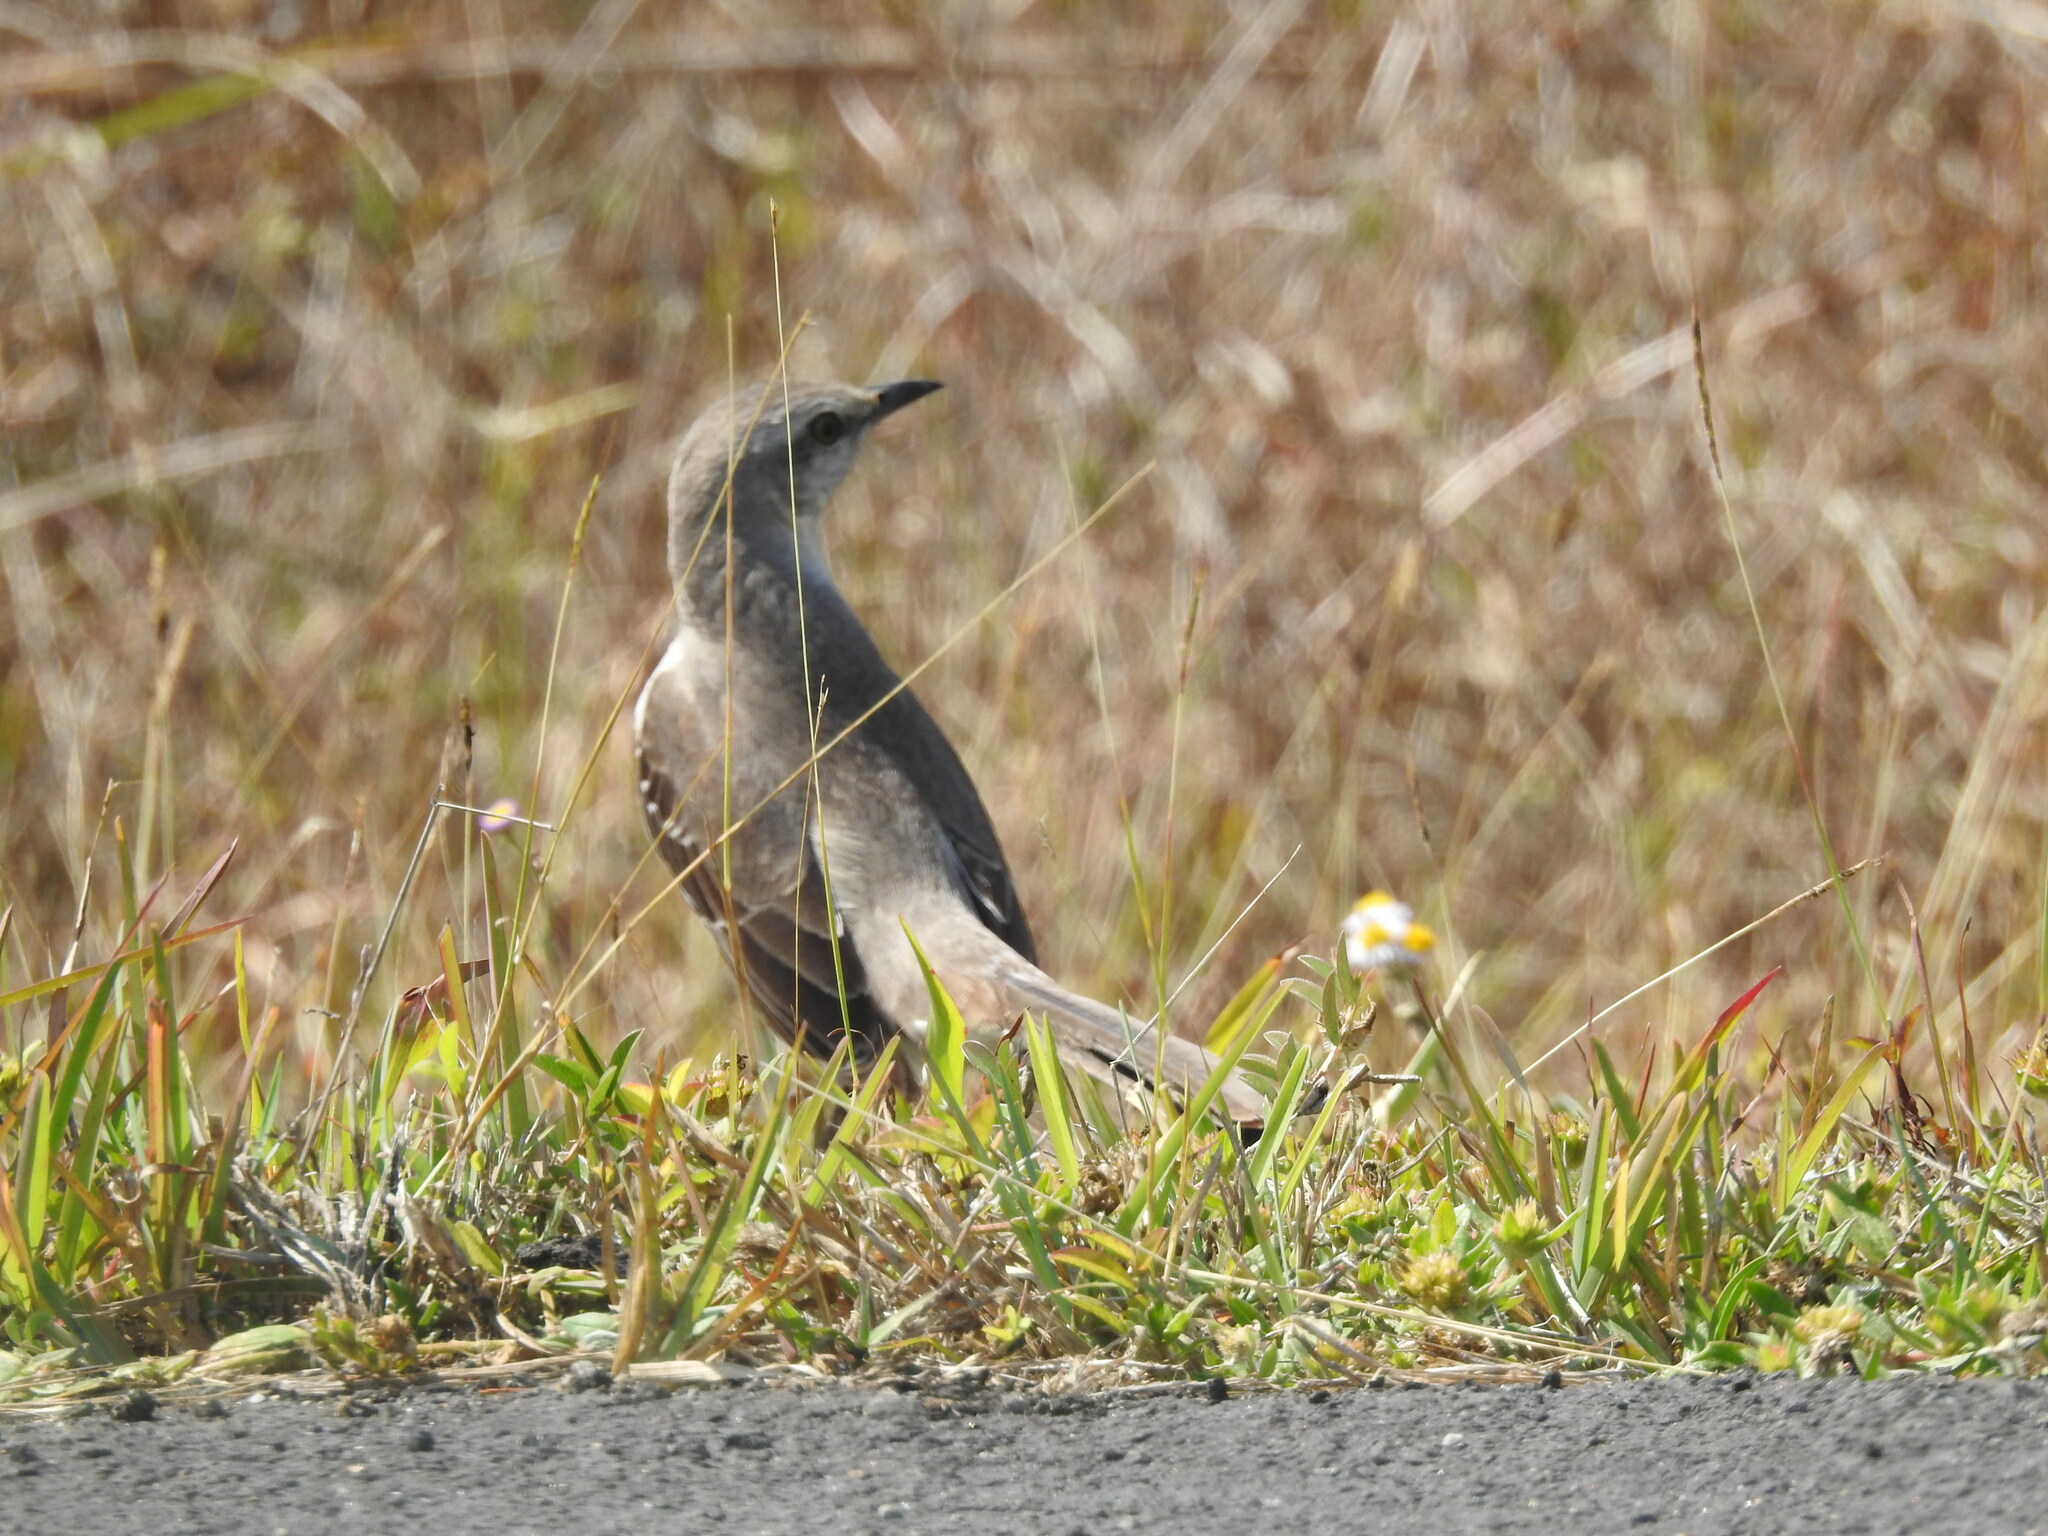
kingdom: Animalia
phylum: Chordata
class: Aves
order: Passeriformes
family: Mimidae
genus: Mimus
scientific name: Mimus polyglottos
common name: Northern mockingbird
